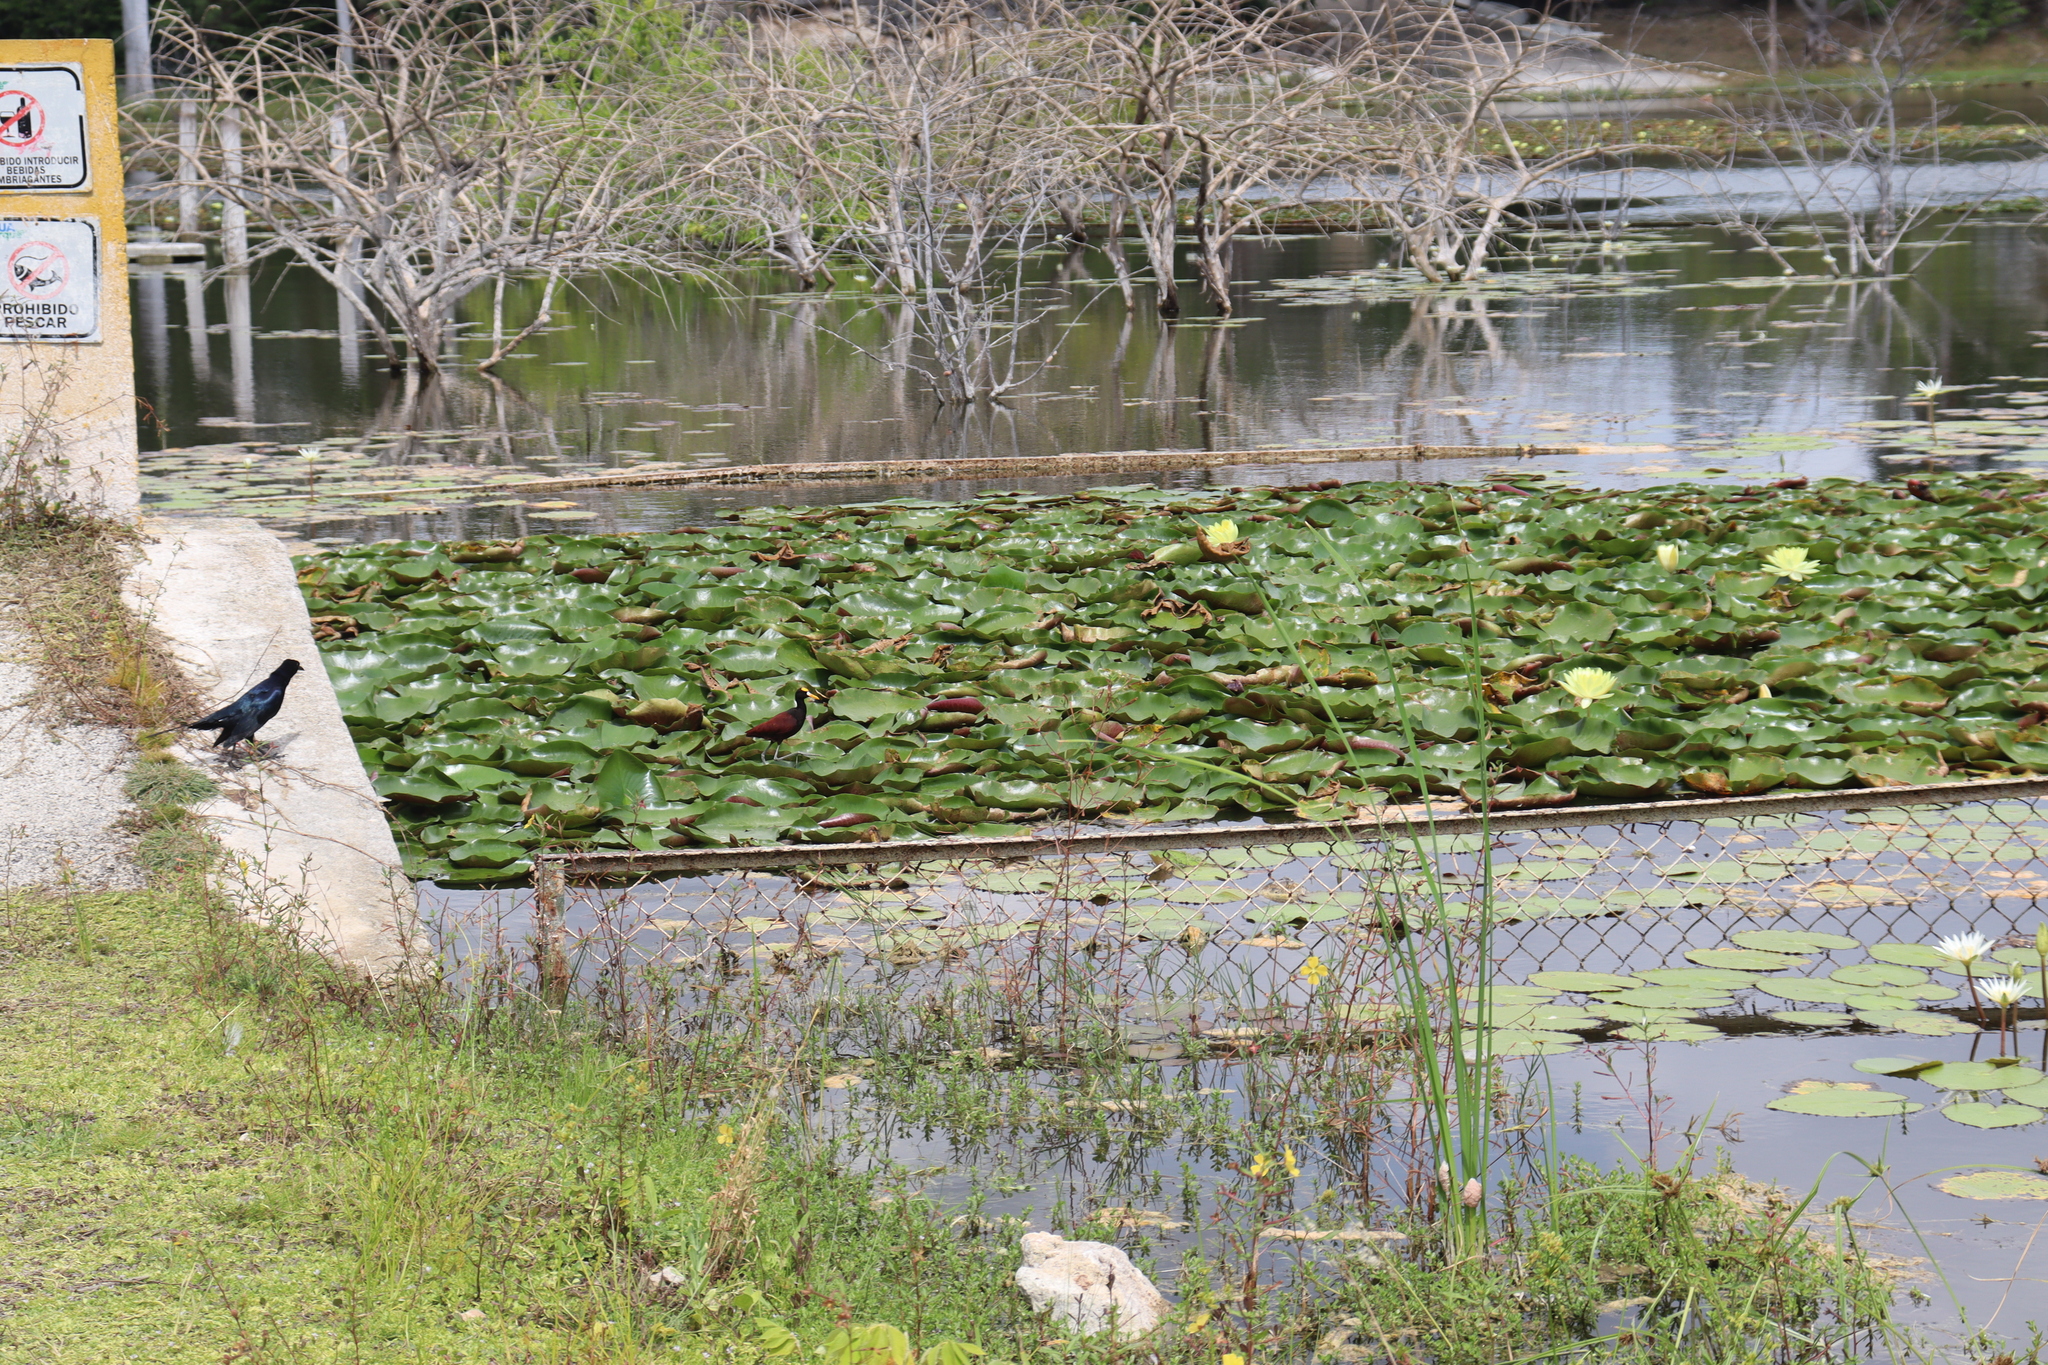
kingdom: Animalia
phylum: Chordata
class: Aves
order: Charadriiformes
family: Jacanidae
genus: Jacana
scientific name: Jacana spinosa
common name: Northern jacana
